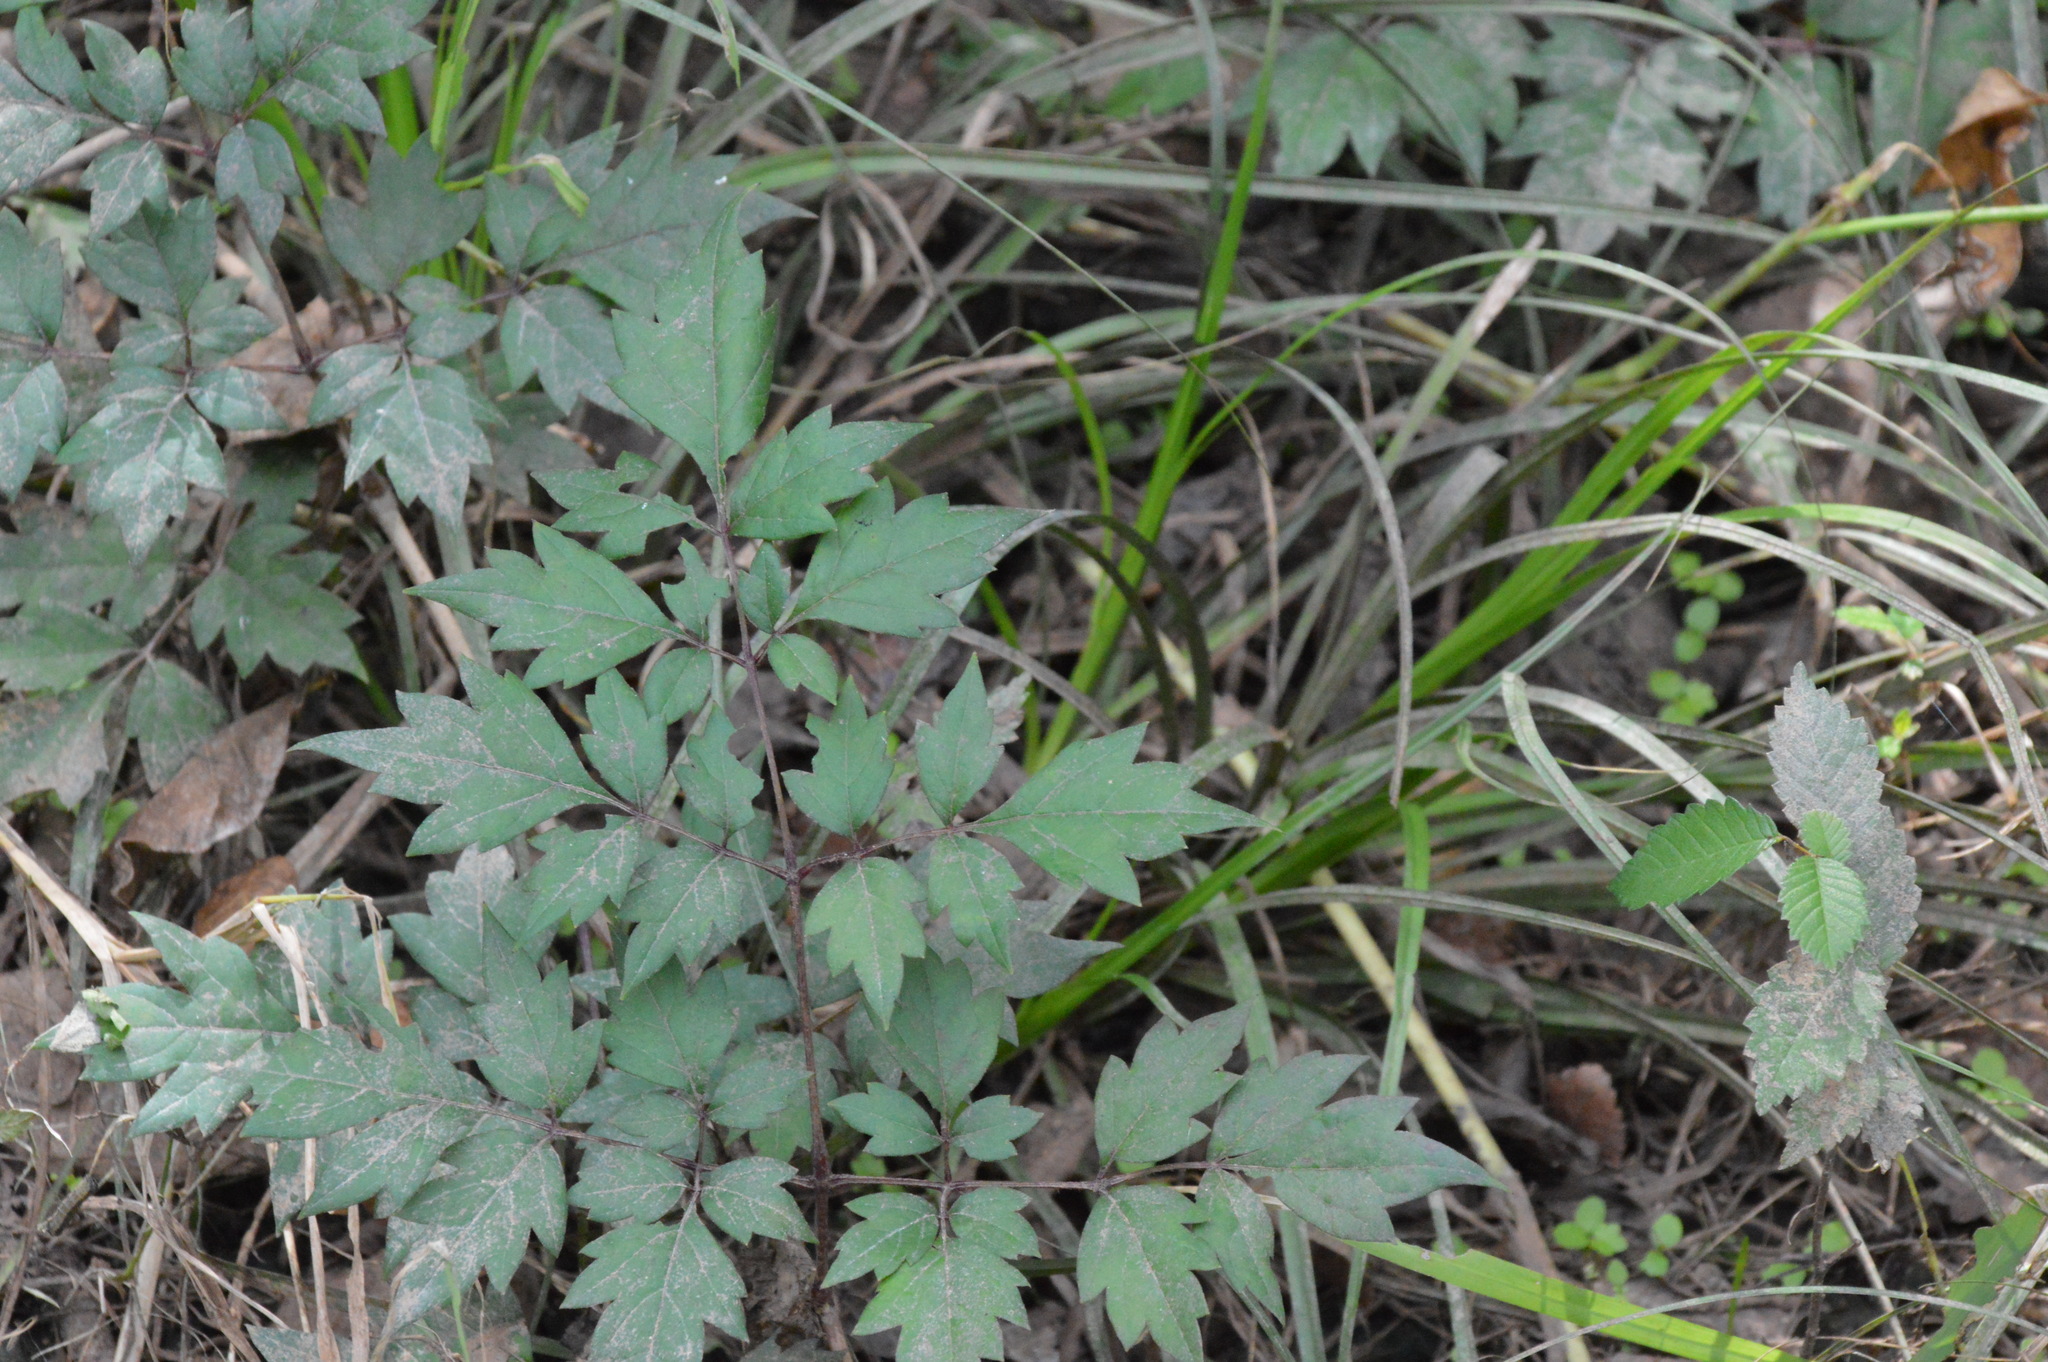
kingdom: Plantae
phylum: Tracheophyta
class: Magnoliopsida
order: Vitales
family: Vitaceae
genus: Nekemias
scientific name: Nekemias arborea
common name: Peppervine
